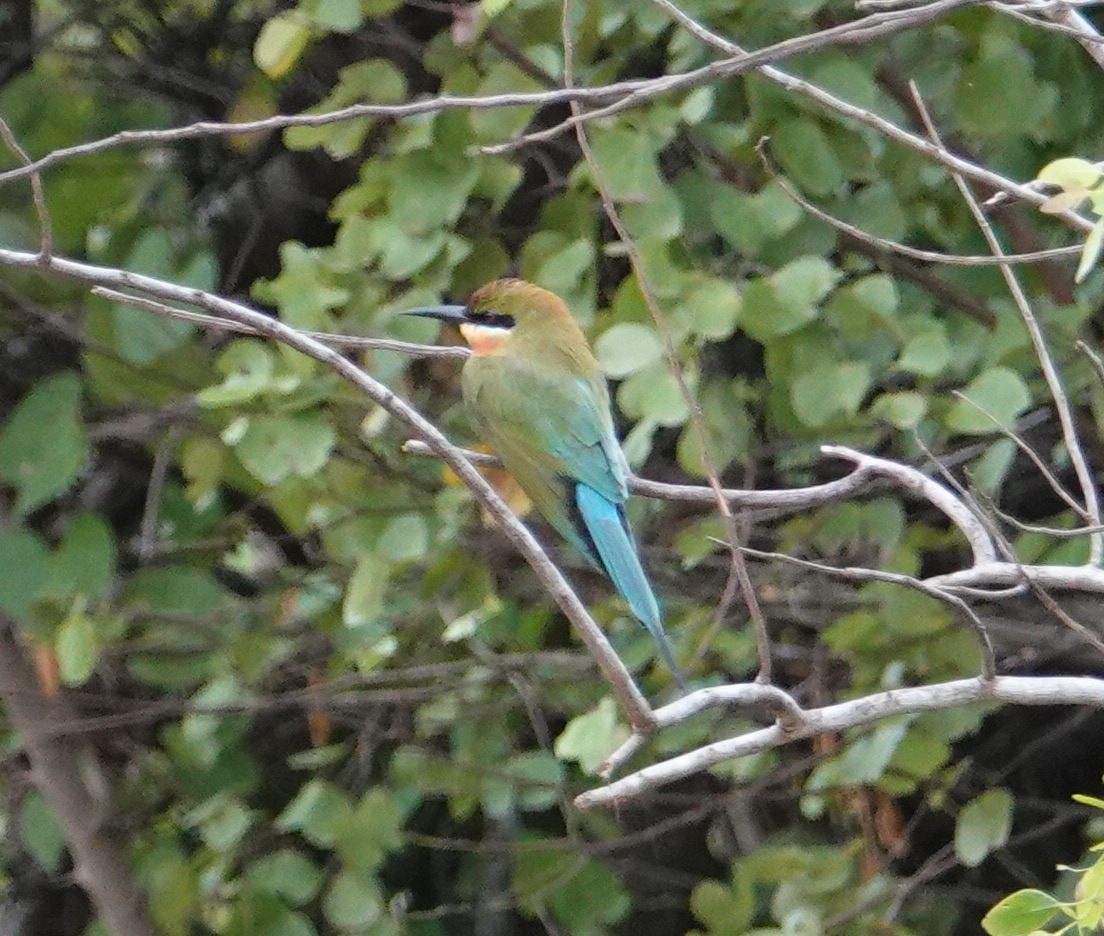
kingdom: Animalia
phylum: Chordata
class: Aves
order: Coraciiformes
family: Meropidae
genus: Merops
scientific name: Merops philippinus
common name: Blue-tailed bee-eater
